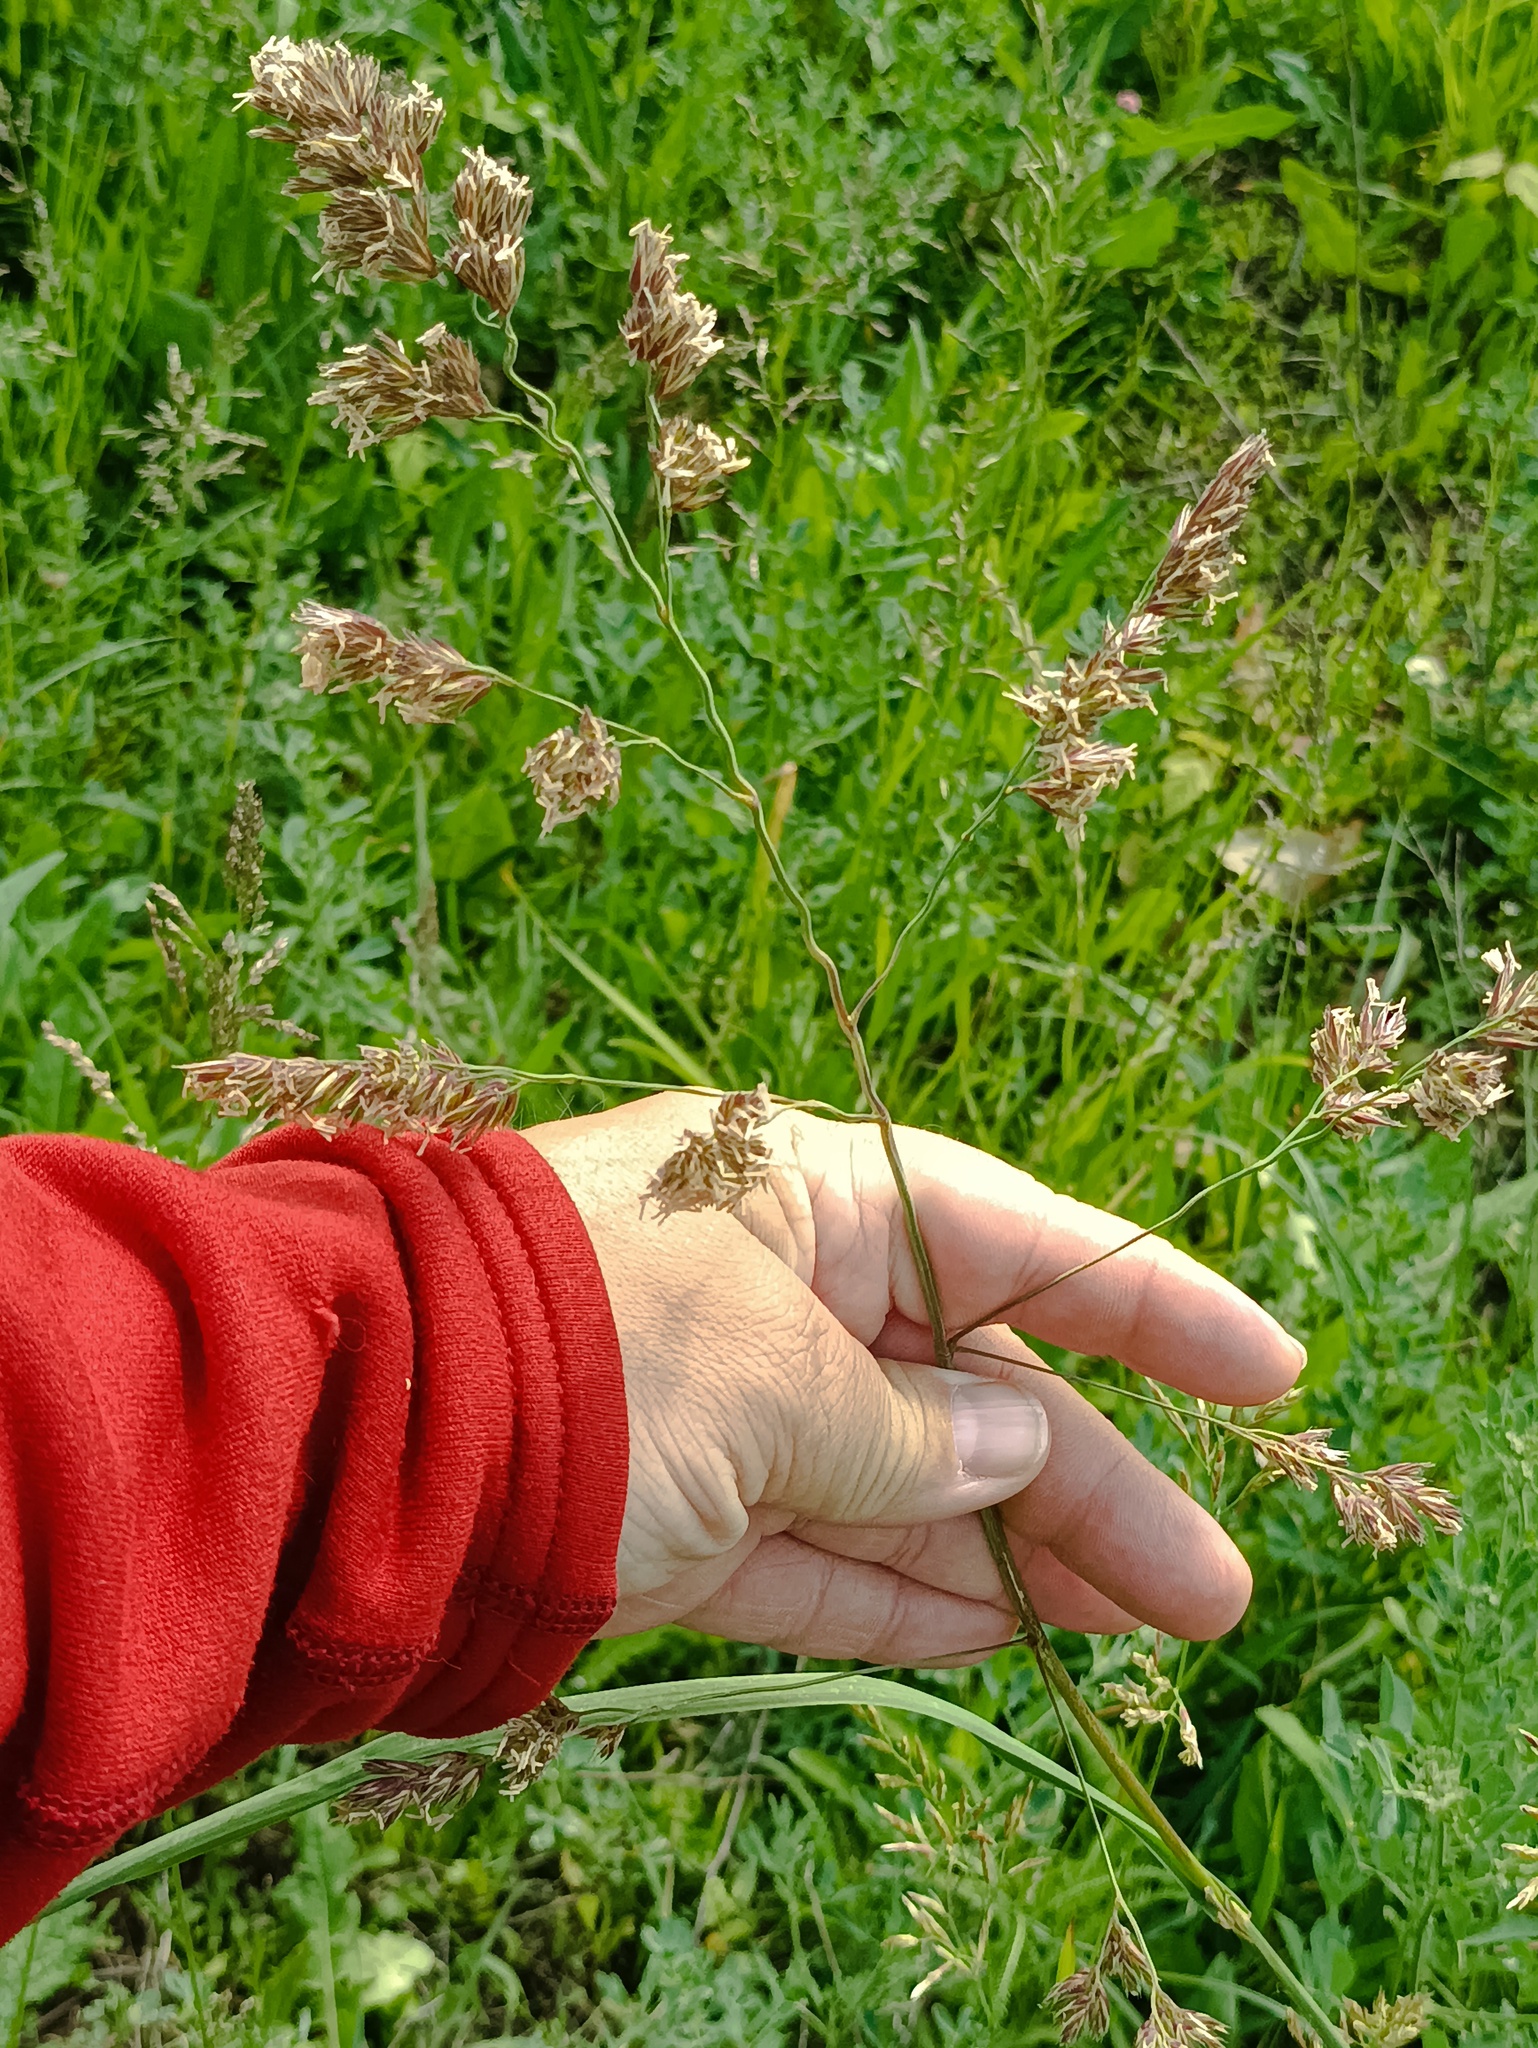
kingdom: Plantae
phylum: Tracheophyta
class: Liliopsida
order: Poales
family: Poaceae
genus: Dactylis
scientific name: Dactylis glomerata
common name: Orchardgrass
